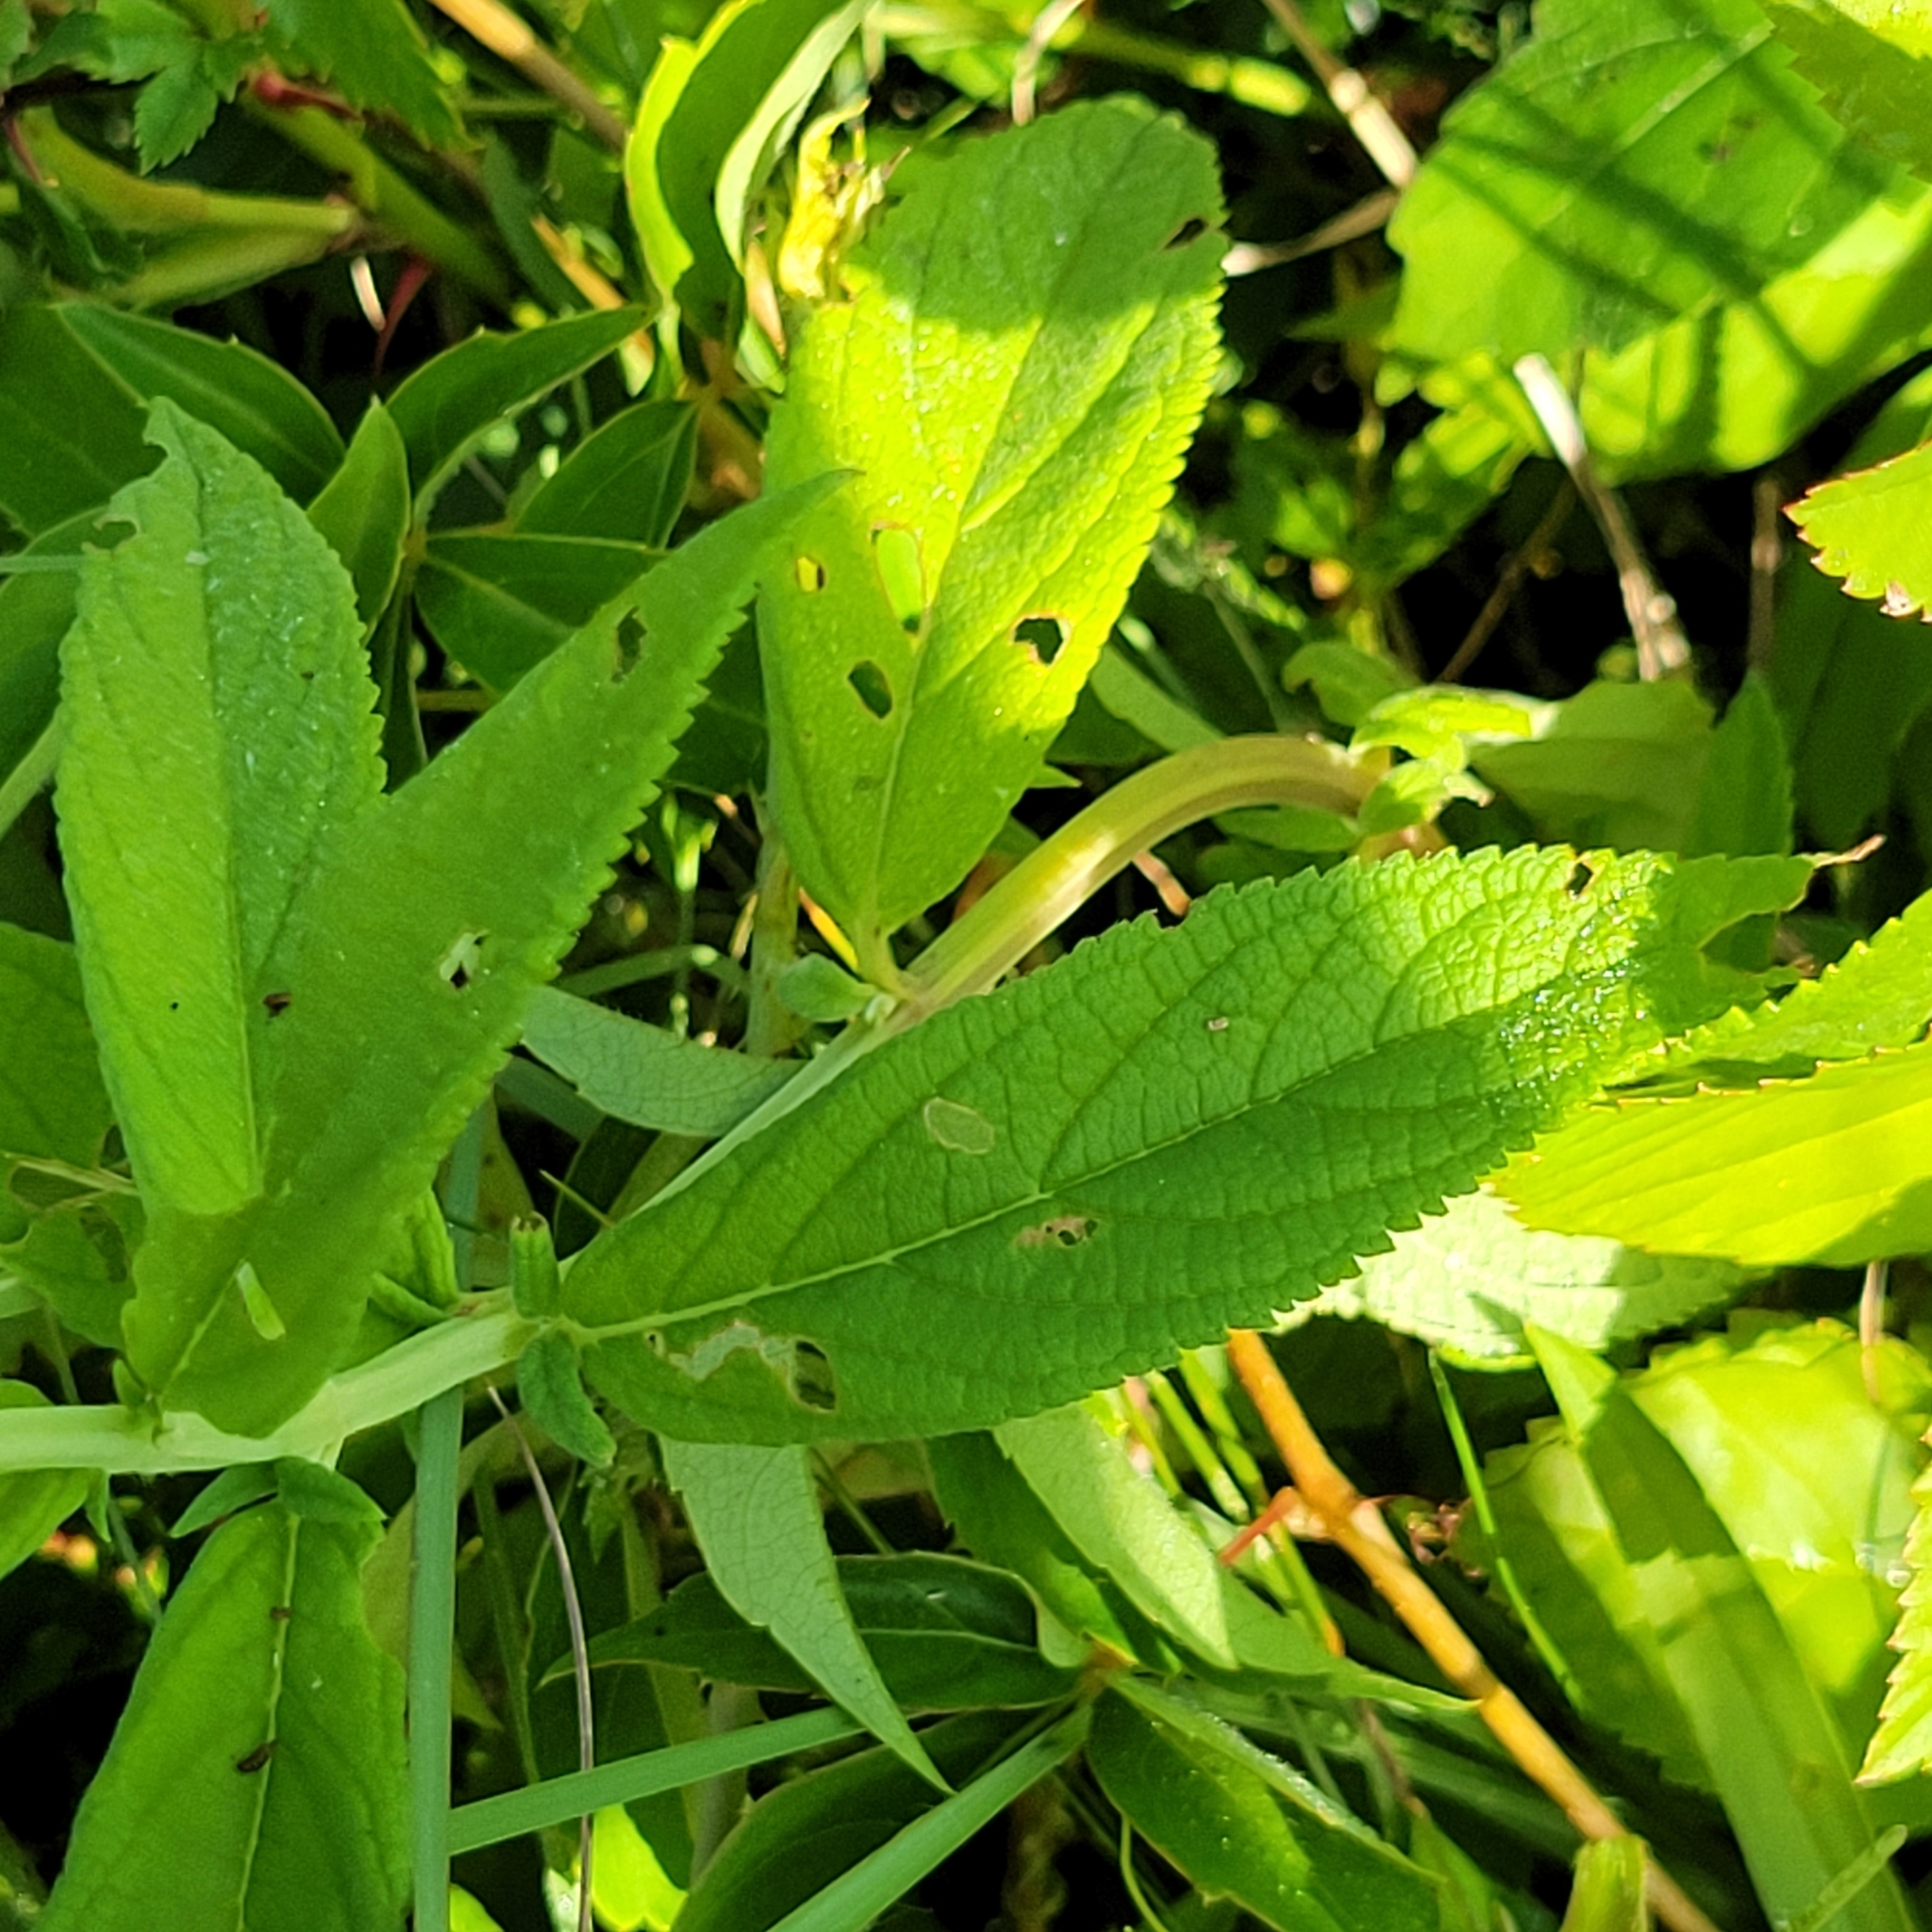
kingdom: Plantae
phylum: Tracheophyta
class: Magnoliopsida
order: Lamiales
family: Lamiaceae
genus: Teucrium
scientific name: Teucrium canadense
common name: American germander
